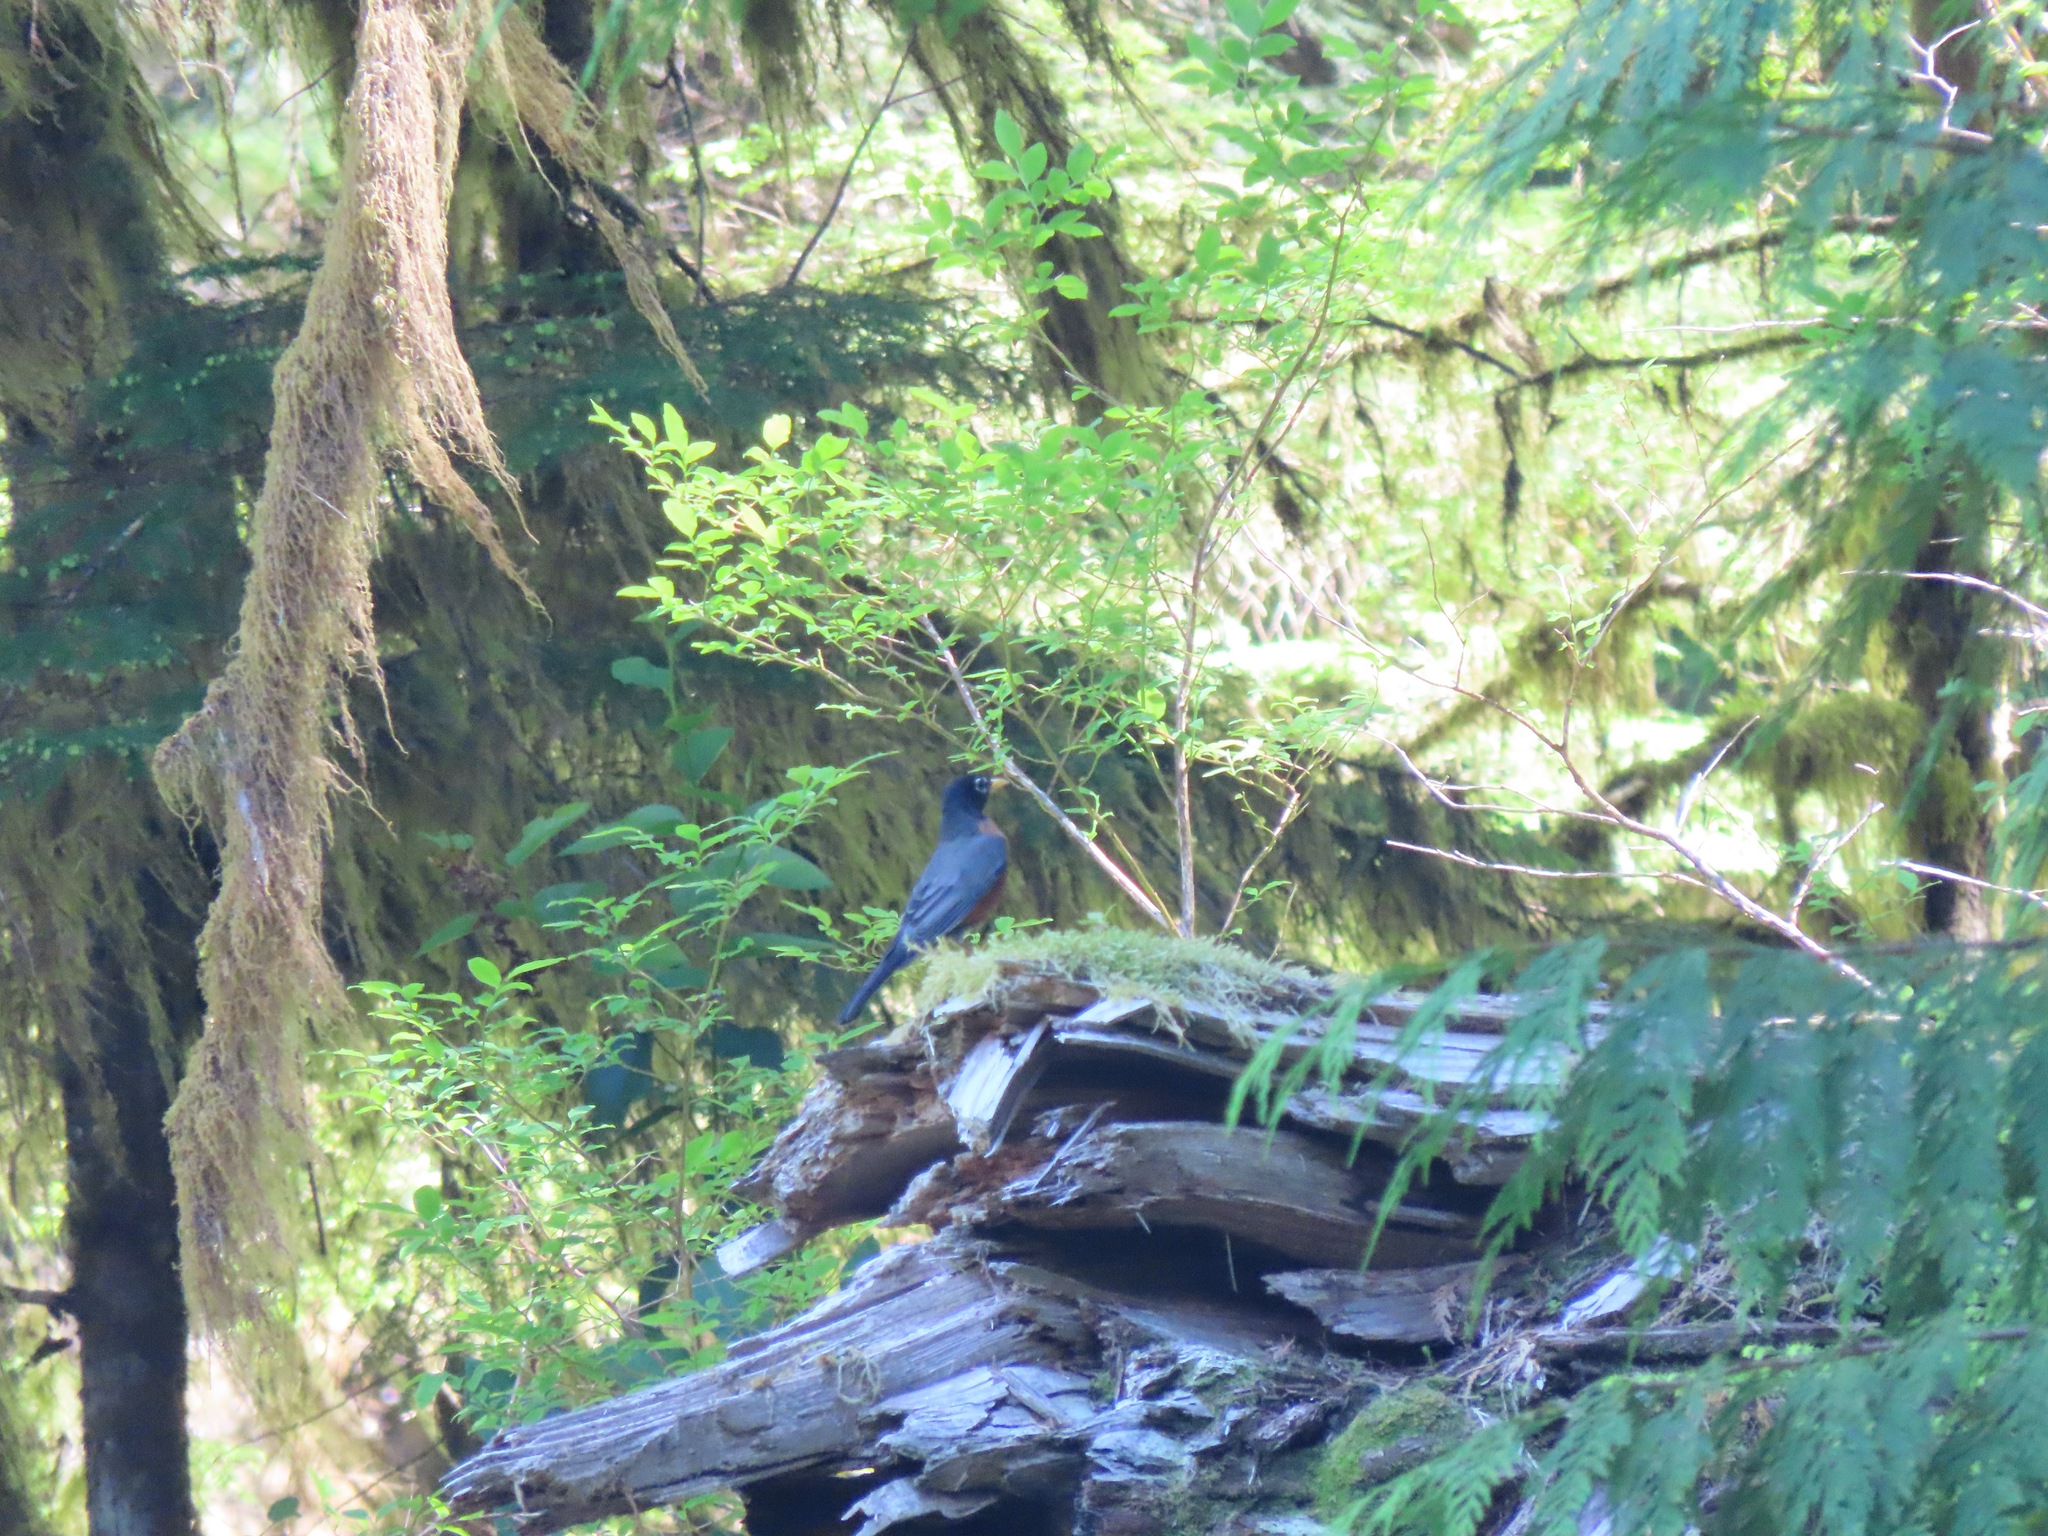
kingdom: Animalia
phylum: Chordata
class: Aves
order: Passeriformes
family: Turdidae
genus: Turdus
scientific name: Turdus migratorius
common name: American robin
